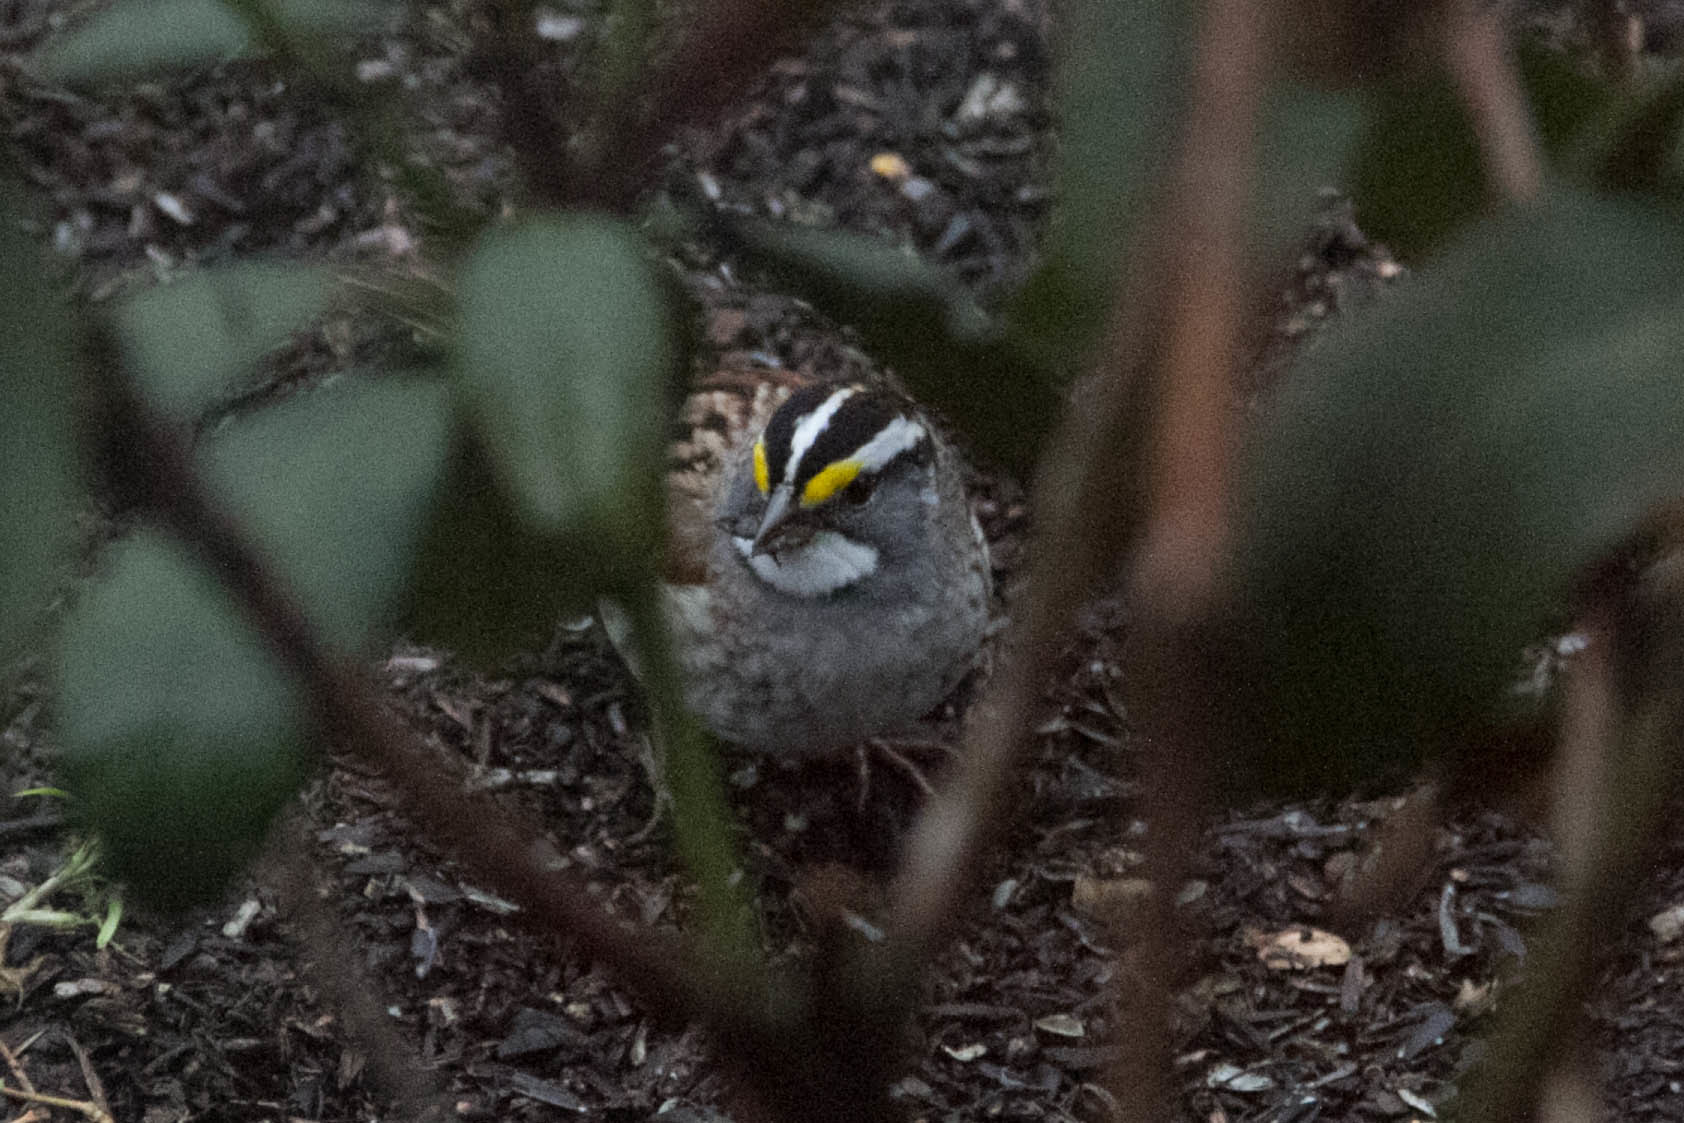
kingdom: Animalia
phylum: Chordata
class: Aves
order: Passeriformes
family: Passerellidae
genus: Zonotrichia
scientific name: Zonotrichia albicollis
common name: White-throated sparrow
